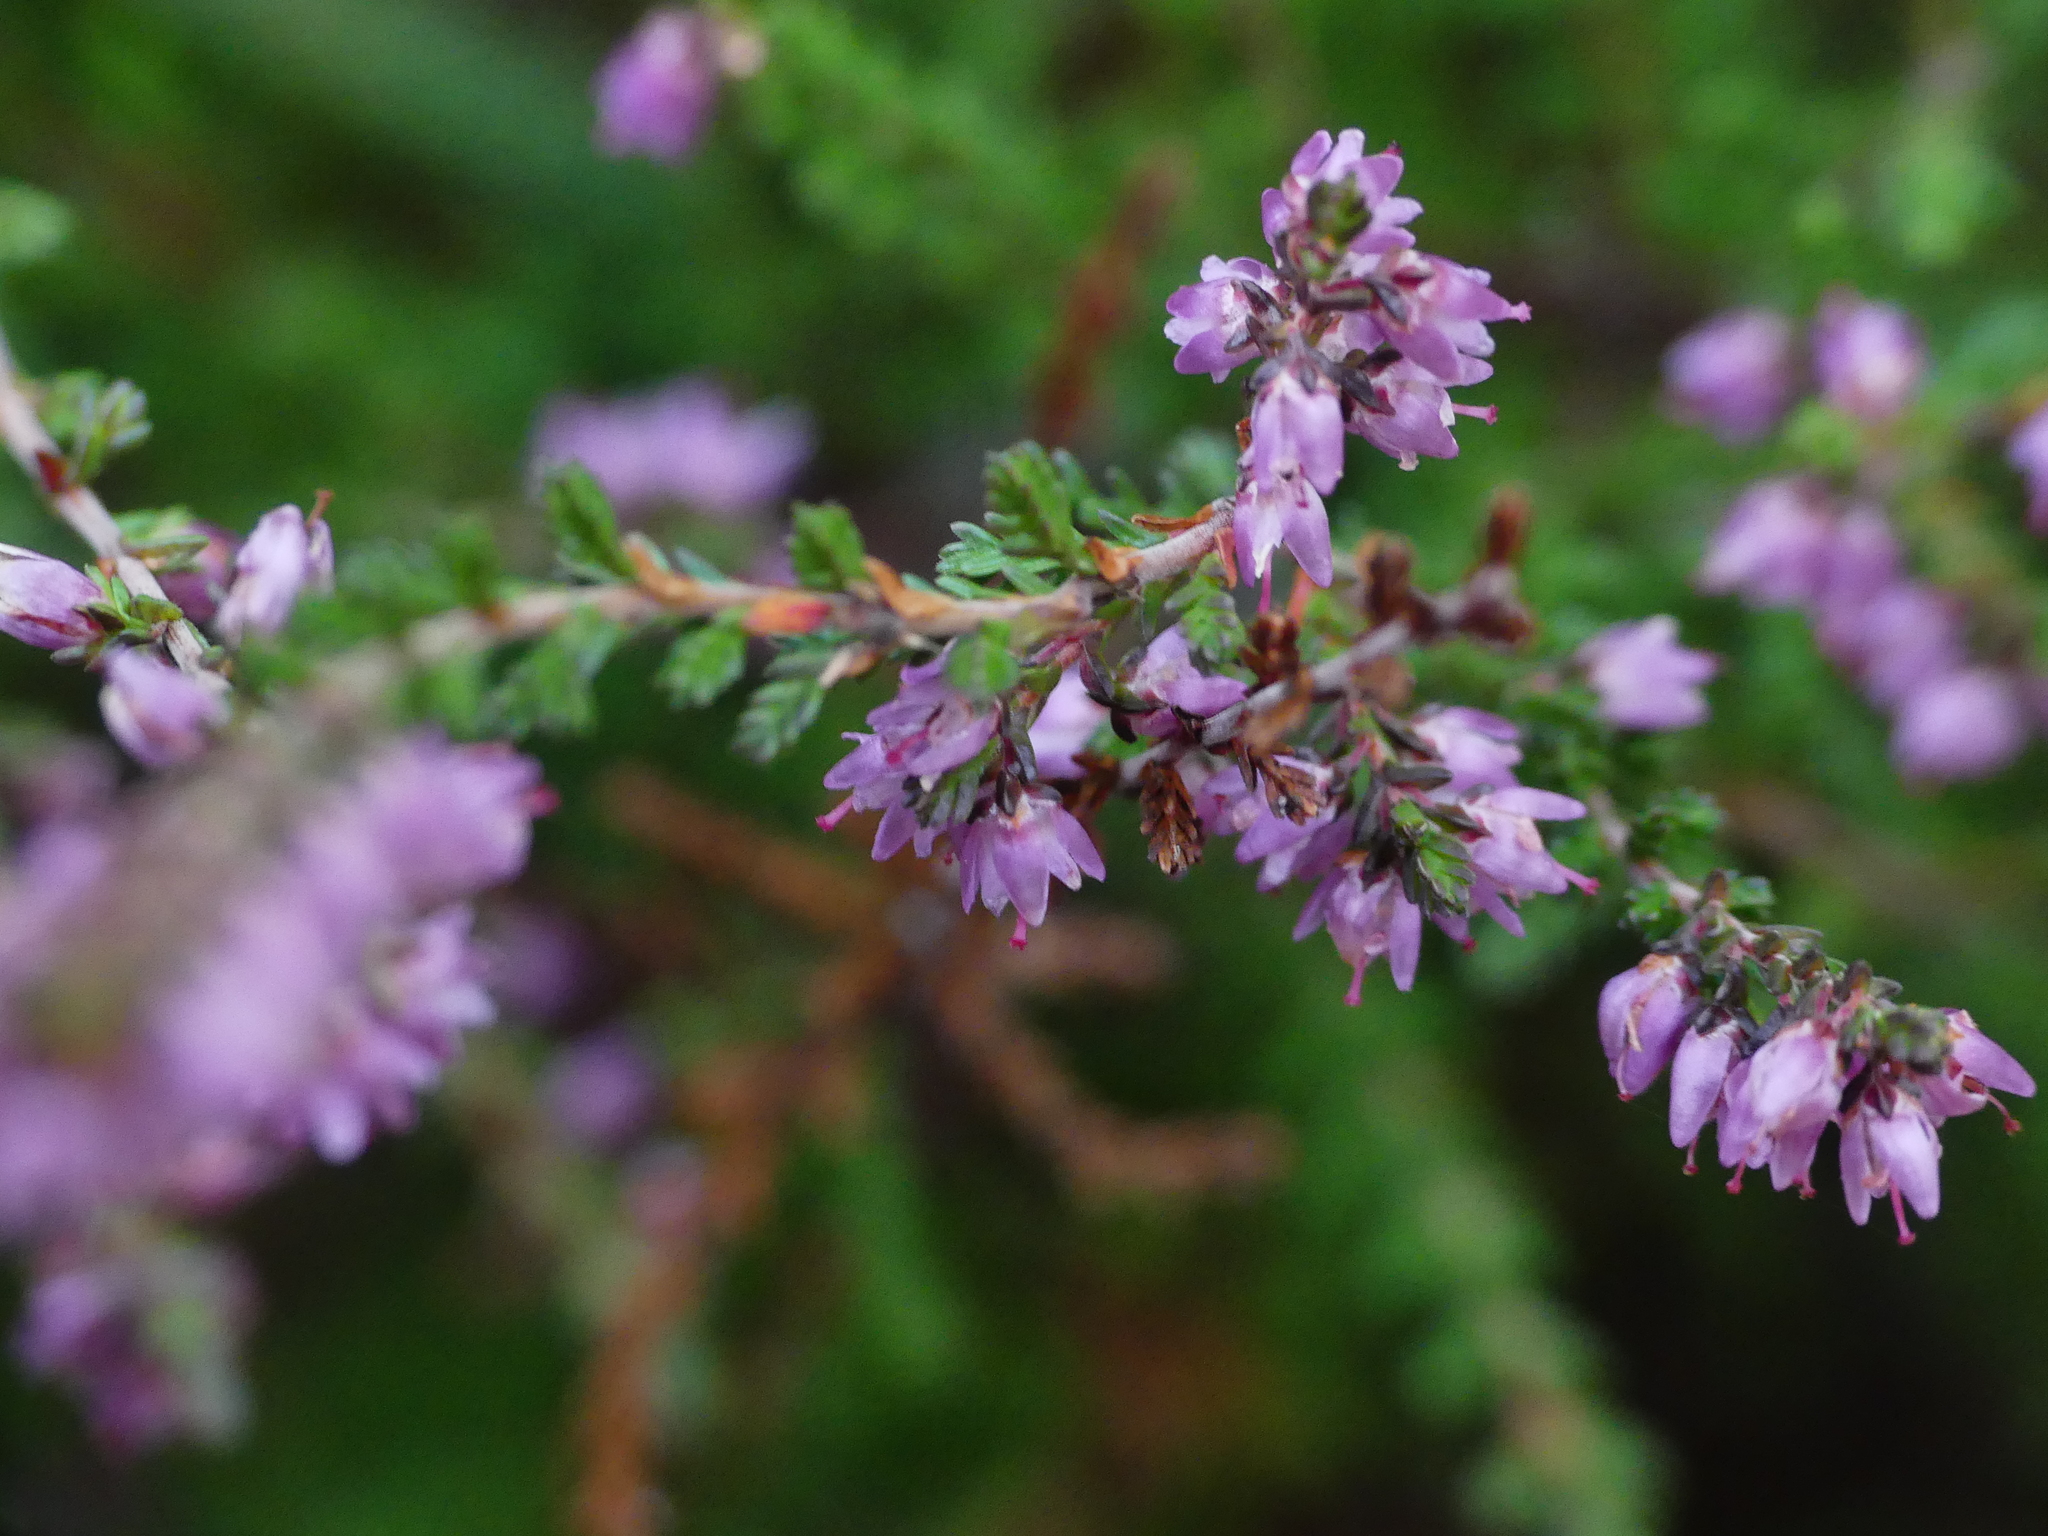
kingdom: Plantae
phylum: Tracheophyta
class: Magnoliopsida
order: Ericales
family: Ericaceae
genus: Calluna
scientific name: Calluna vulgaris
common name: Heather
